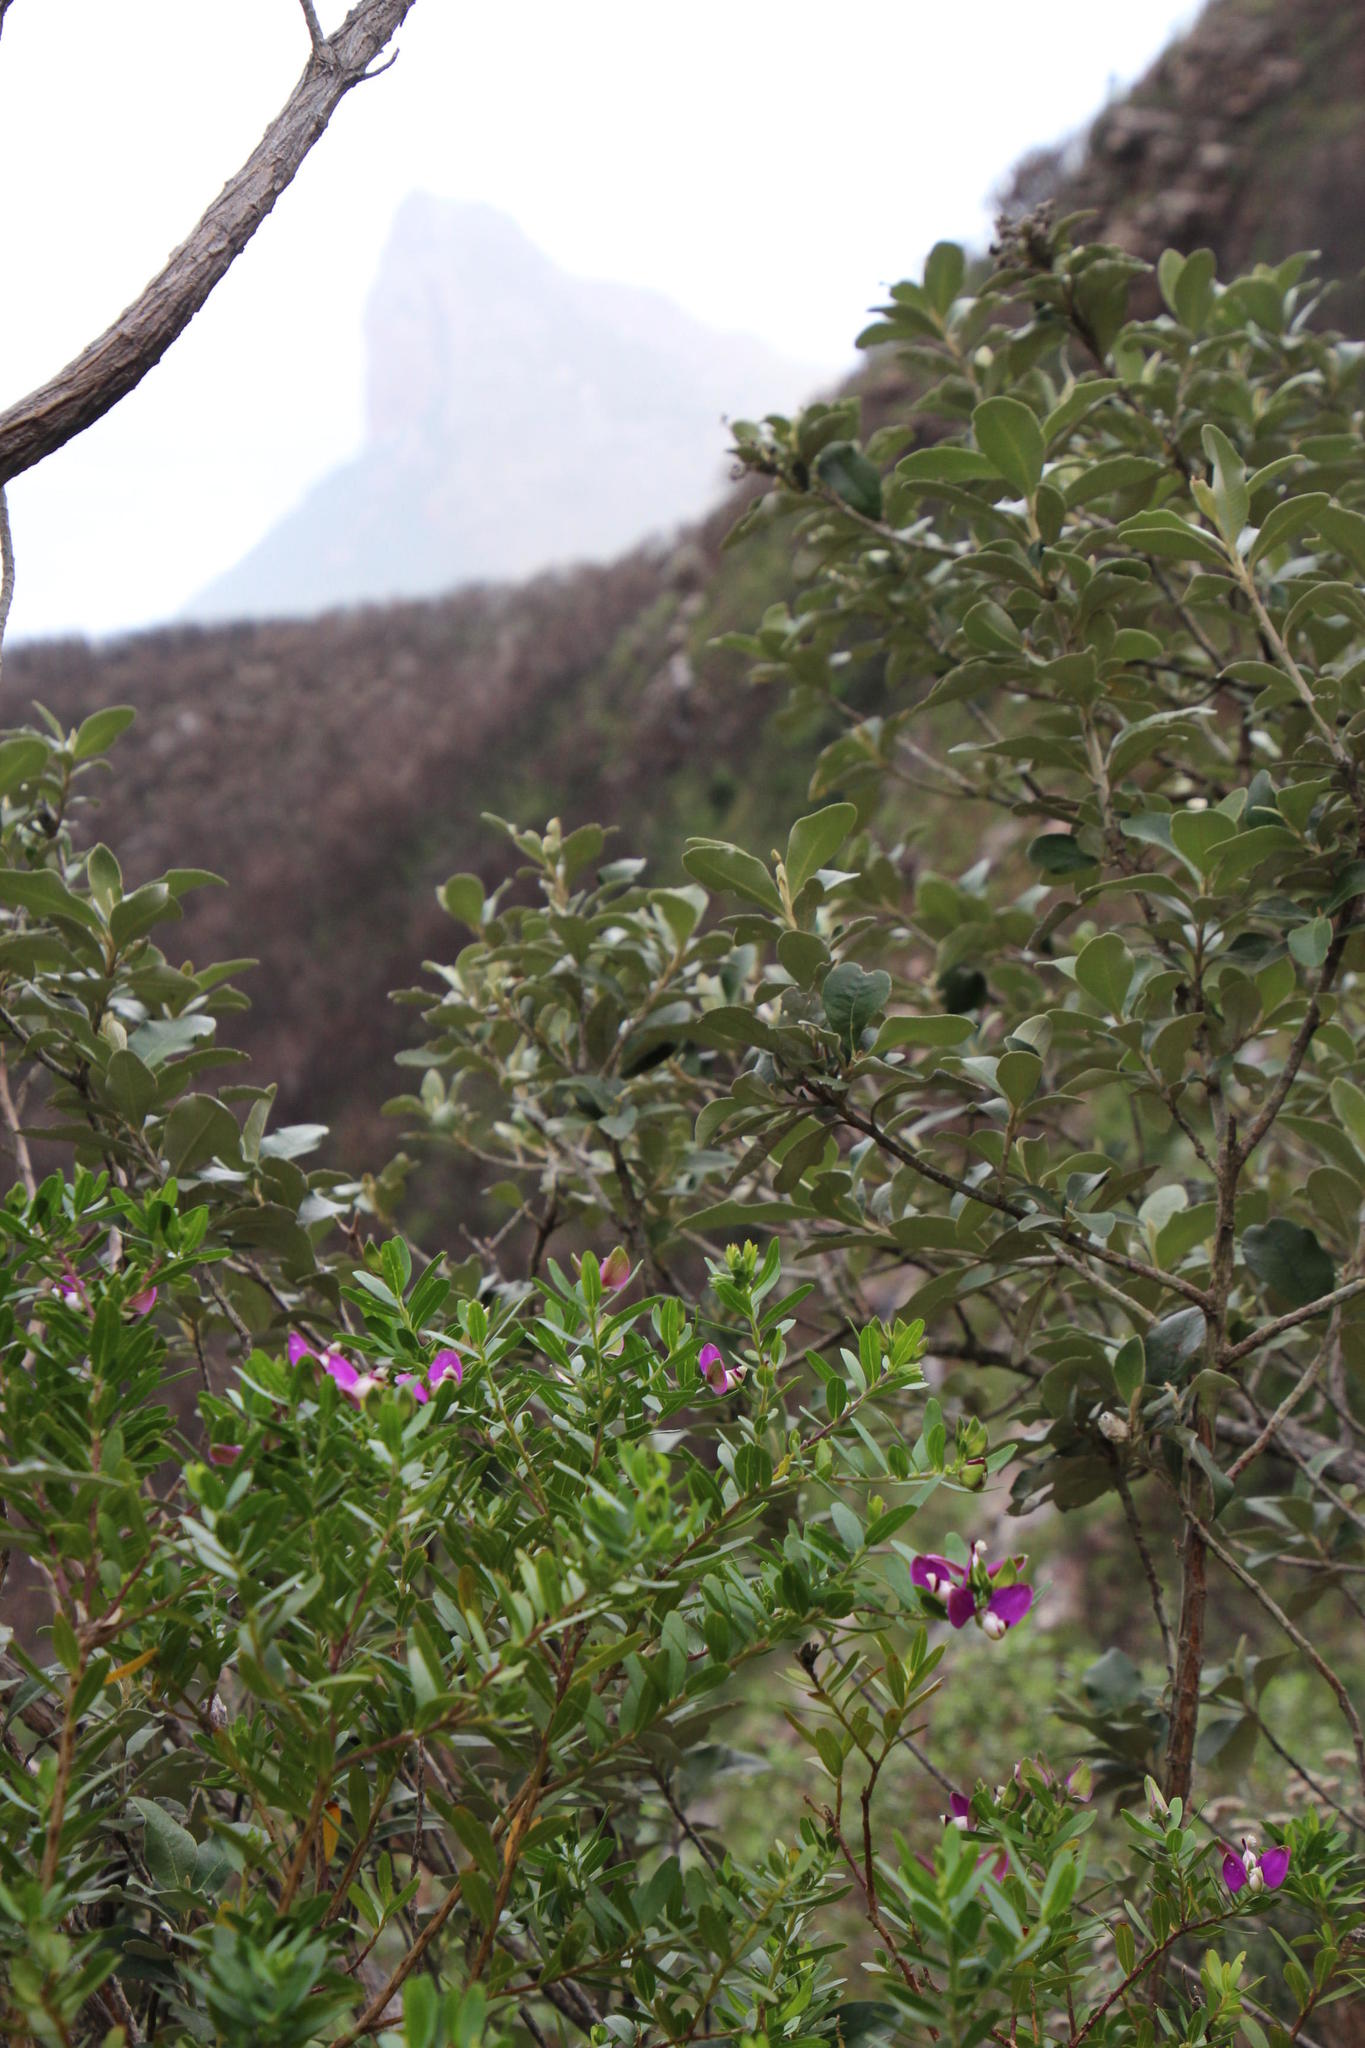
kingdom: Plantae
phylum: Tracheophyta
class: Magnoliopsida
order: Fabales
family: Polygalaceae
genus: Polygala
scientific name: Polygala myrtifolia
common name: Myrtle-leaf milkwort
